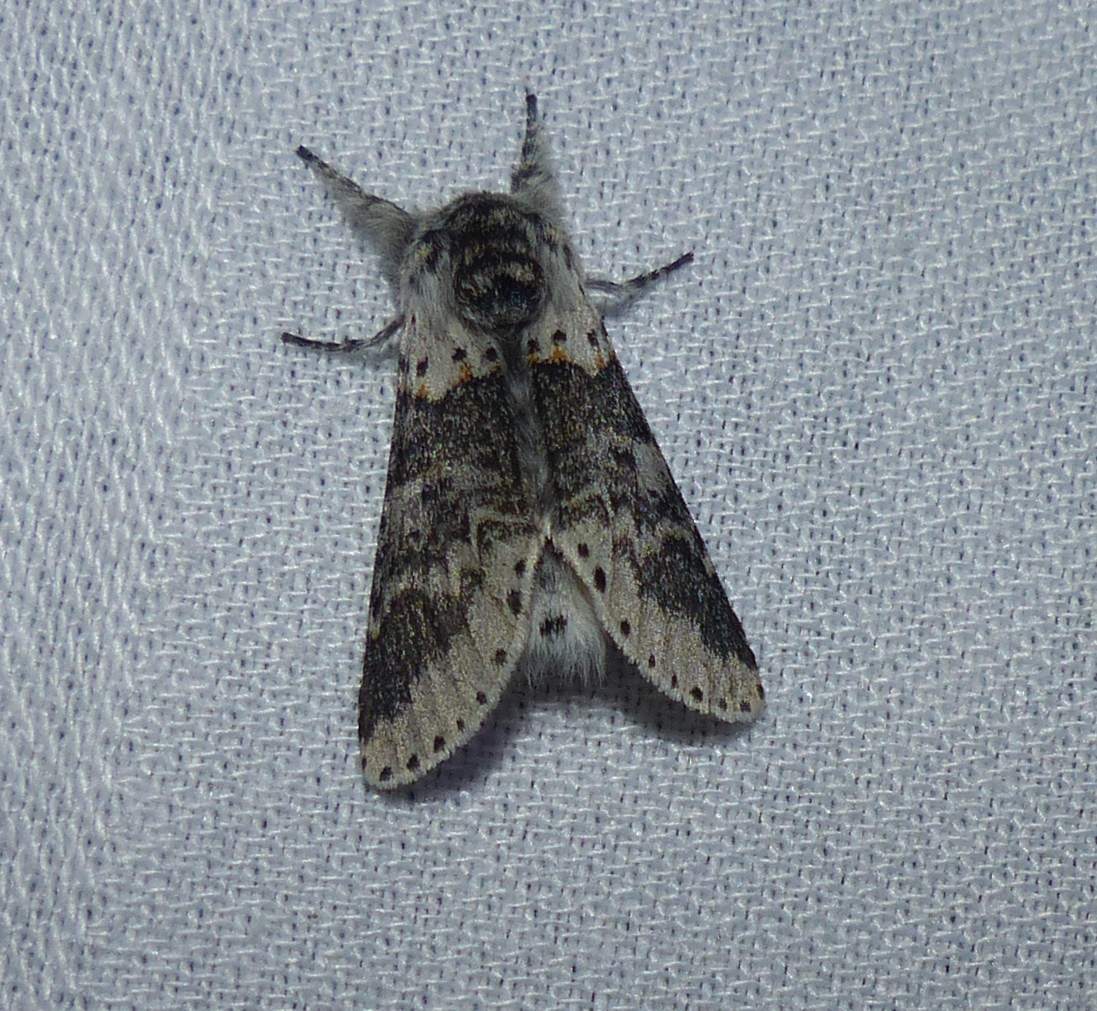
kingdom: Animalia
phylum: Arthropoda
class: Insecta
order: Lepidoptera
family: Notodontidae
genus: Furcula
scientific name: Furcula occidentalis
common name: Western furcula moth
